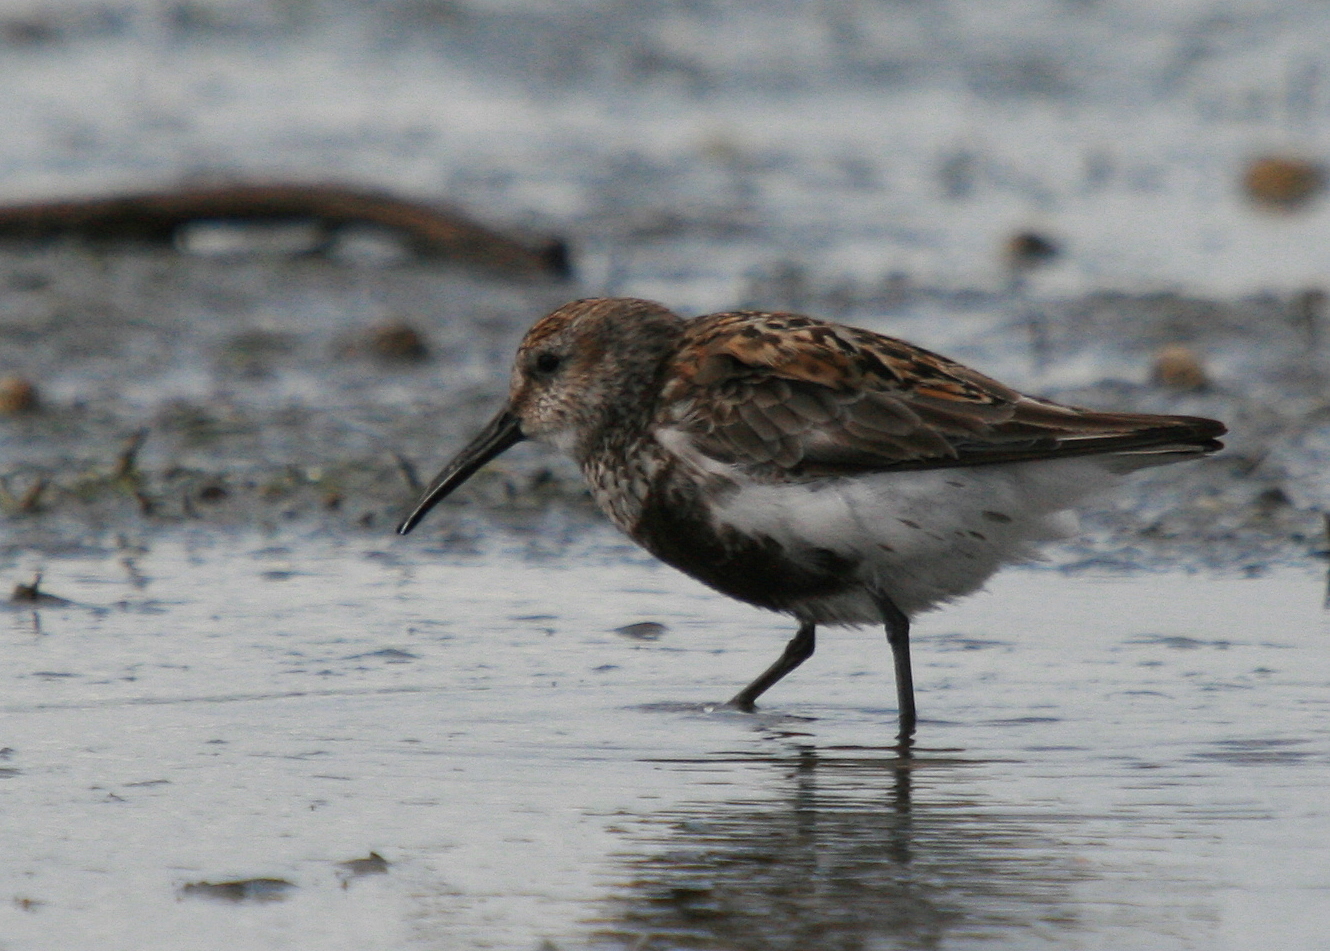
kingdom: Animalia
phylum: Chordata
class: Aves
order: Charadriiformes
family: Scolopacidae
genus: Calidris
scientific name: Calidris alpina
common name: Dunlin
